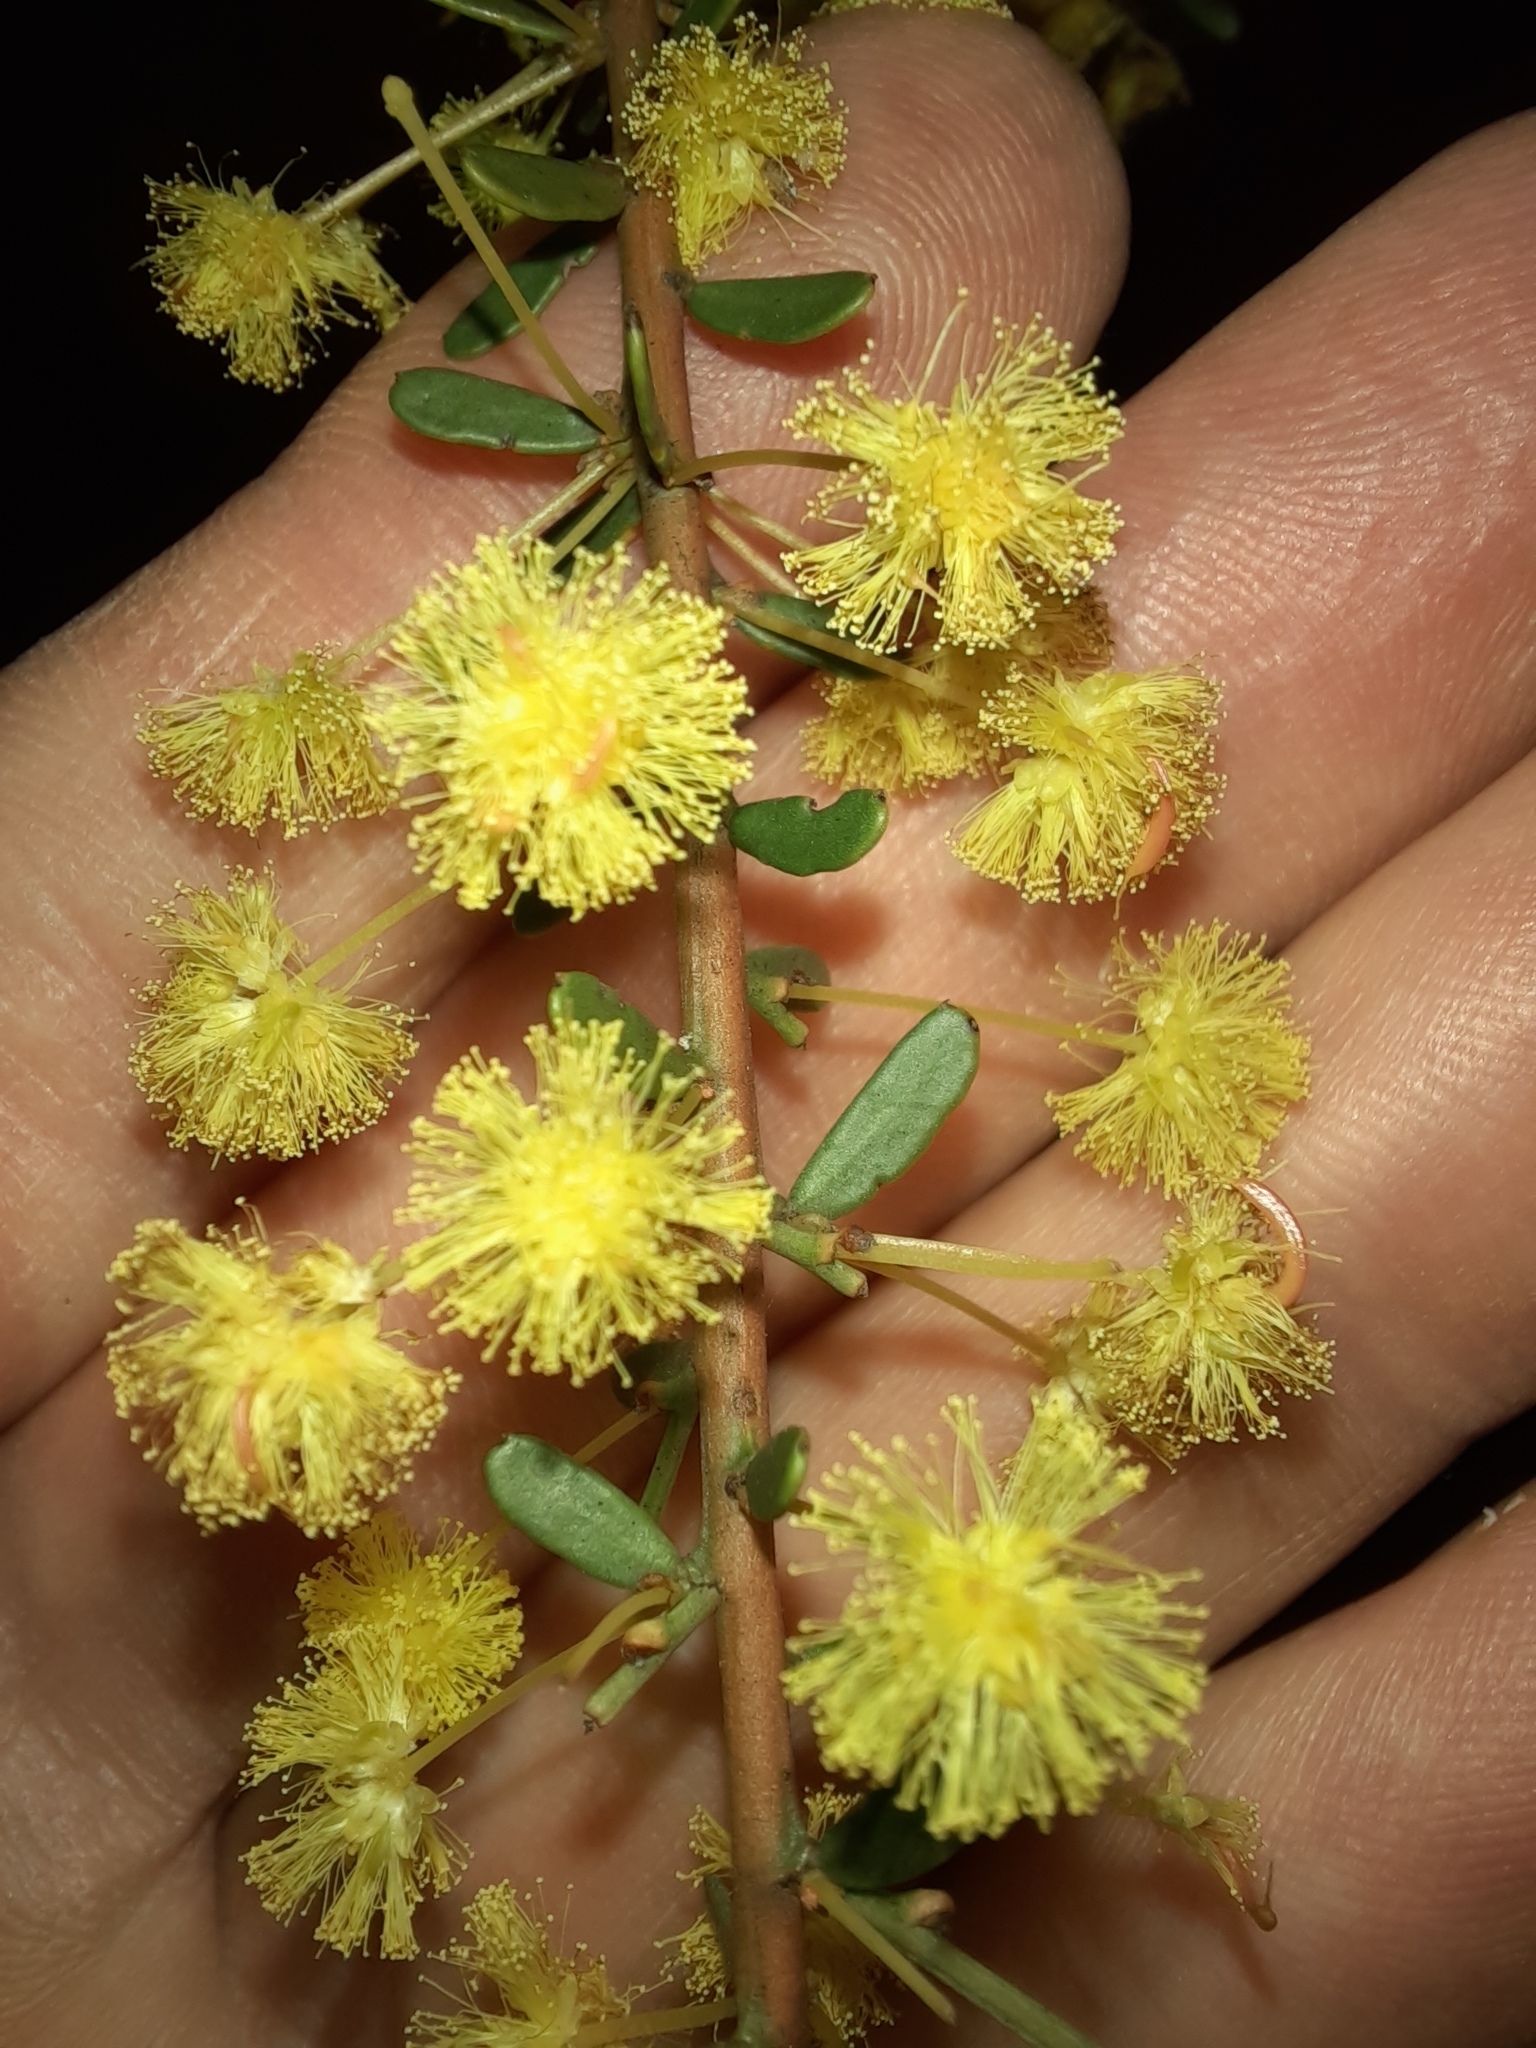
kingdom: Plantae
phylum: Tracheophyta
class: Magnoliopsida
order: Fabales
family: Fabaceae
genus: Acacia
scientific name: Acacia acinacea
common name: Gold-dust acacia
